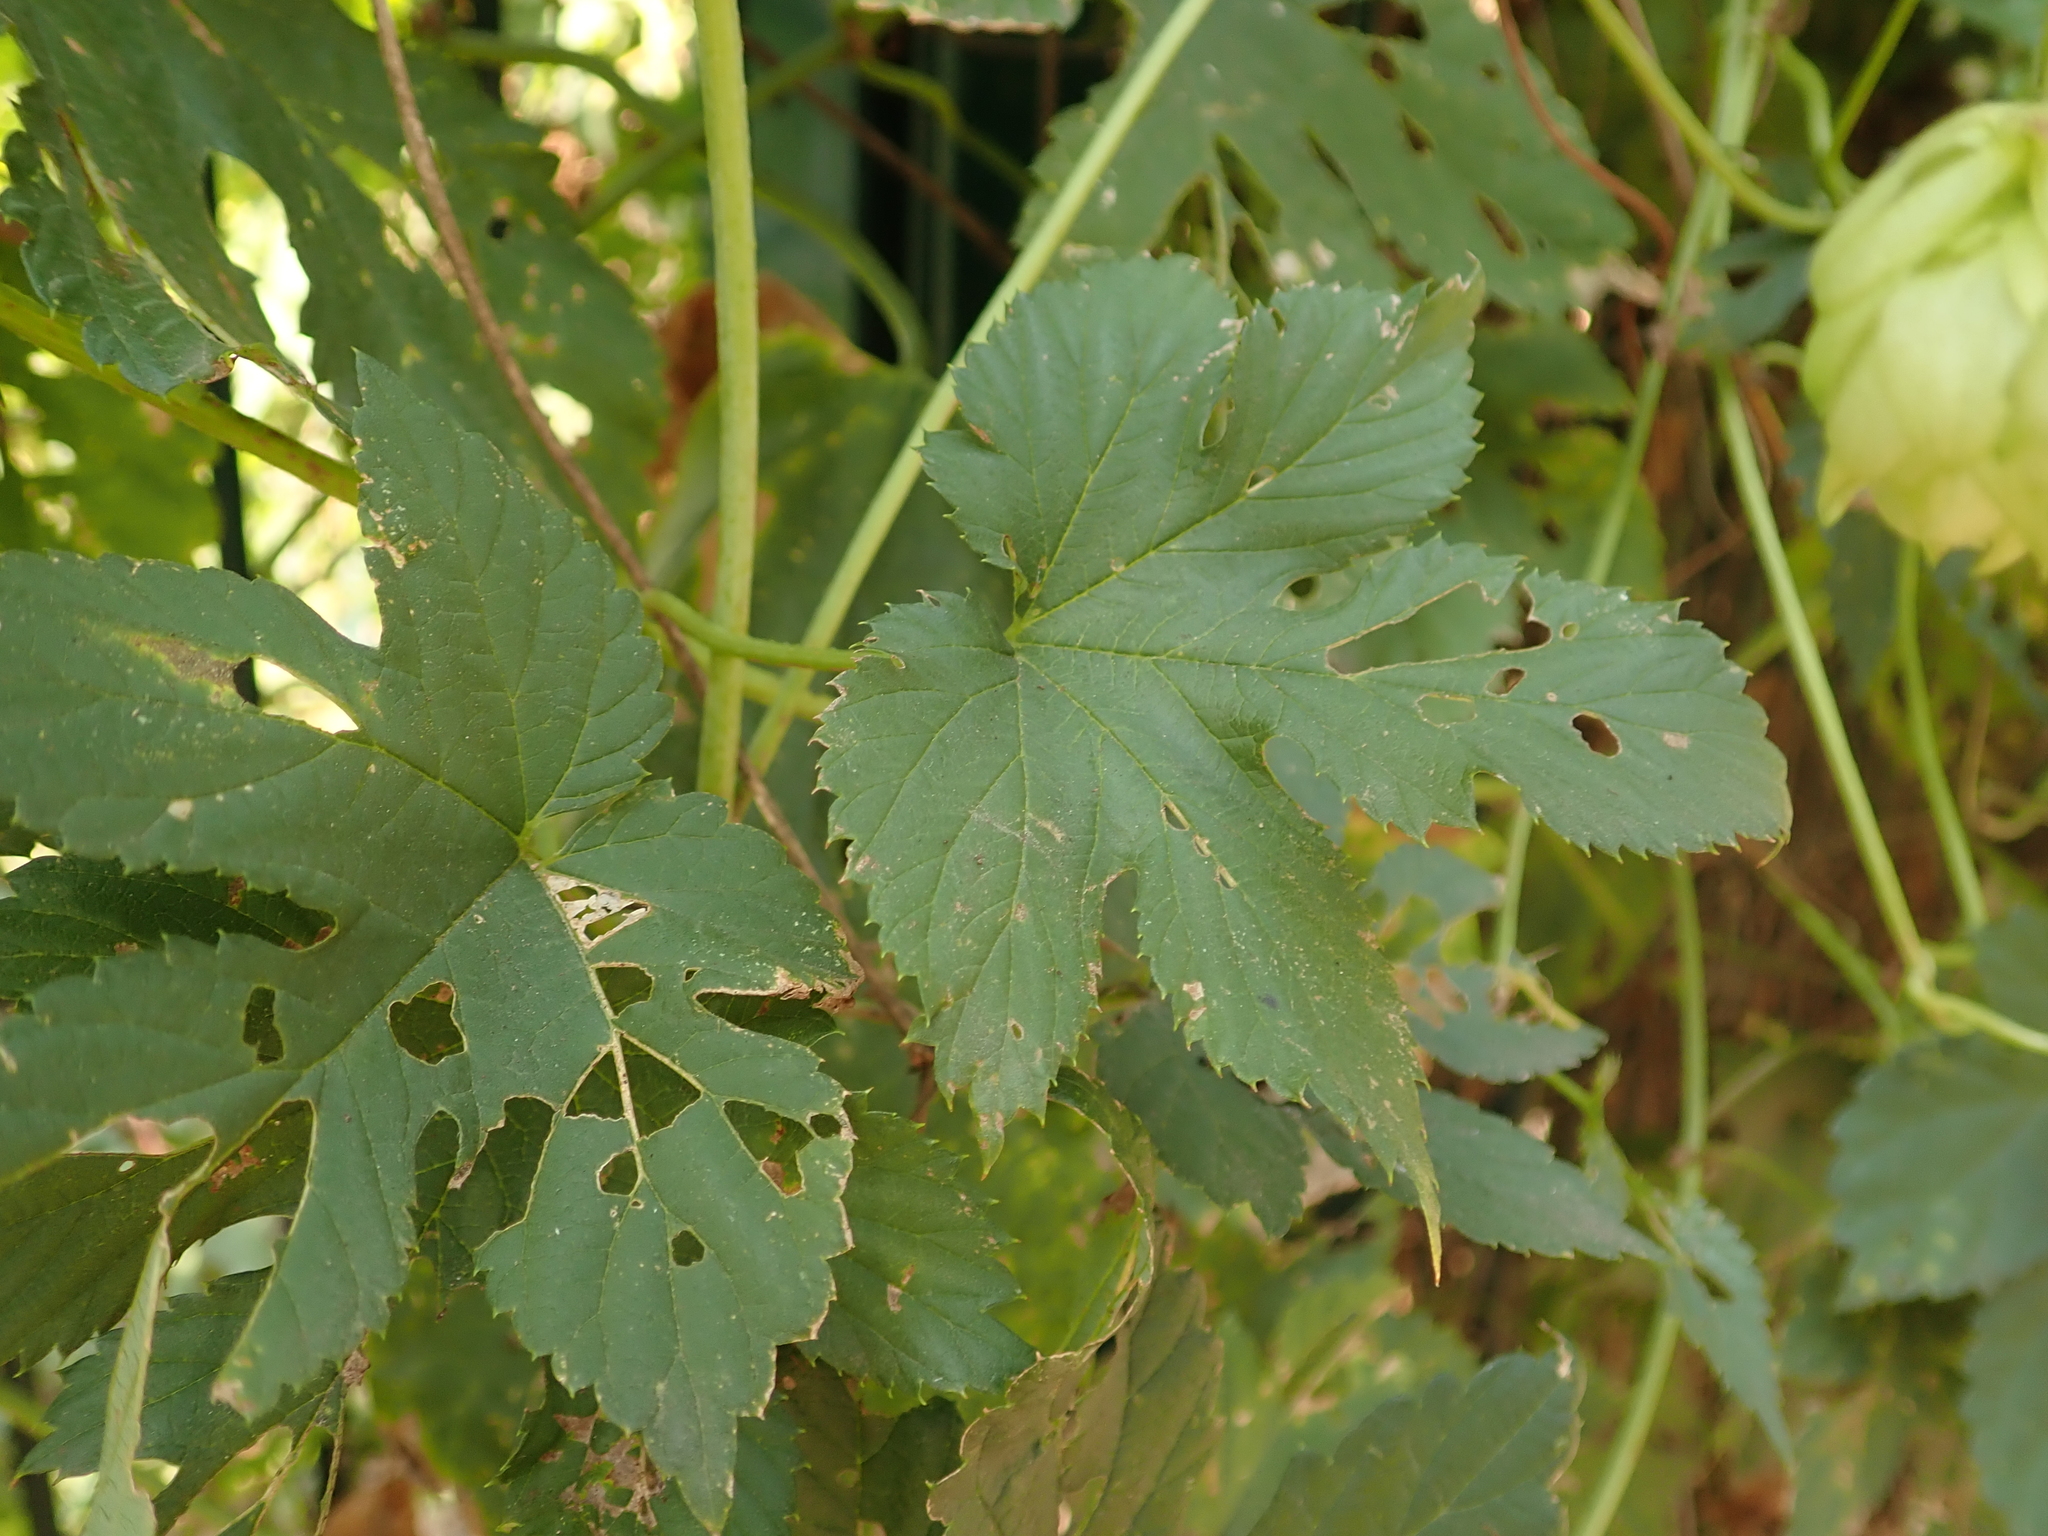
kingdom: Plantae
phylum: Tracheophyta
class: Magnoliopsida
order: Rosales
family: Cannabaceae
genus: Humulus
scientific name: Humulus lupulus
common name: Hop
